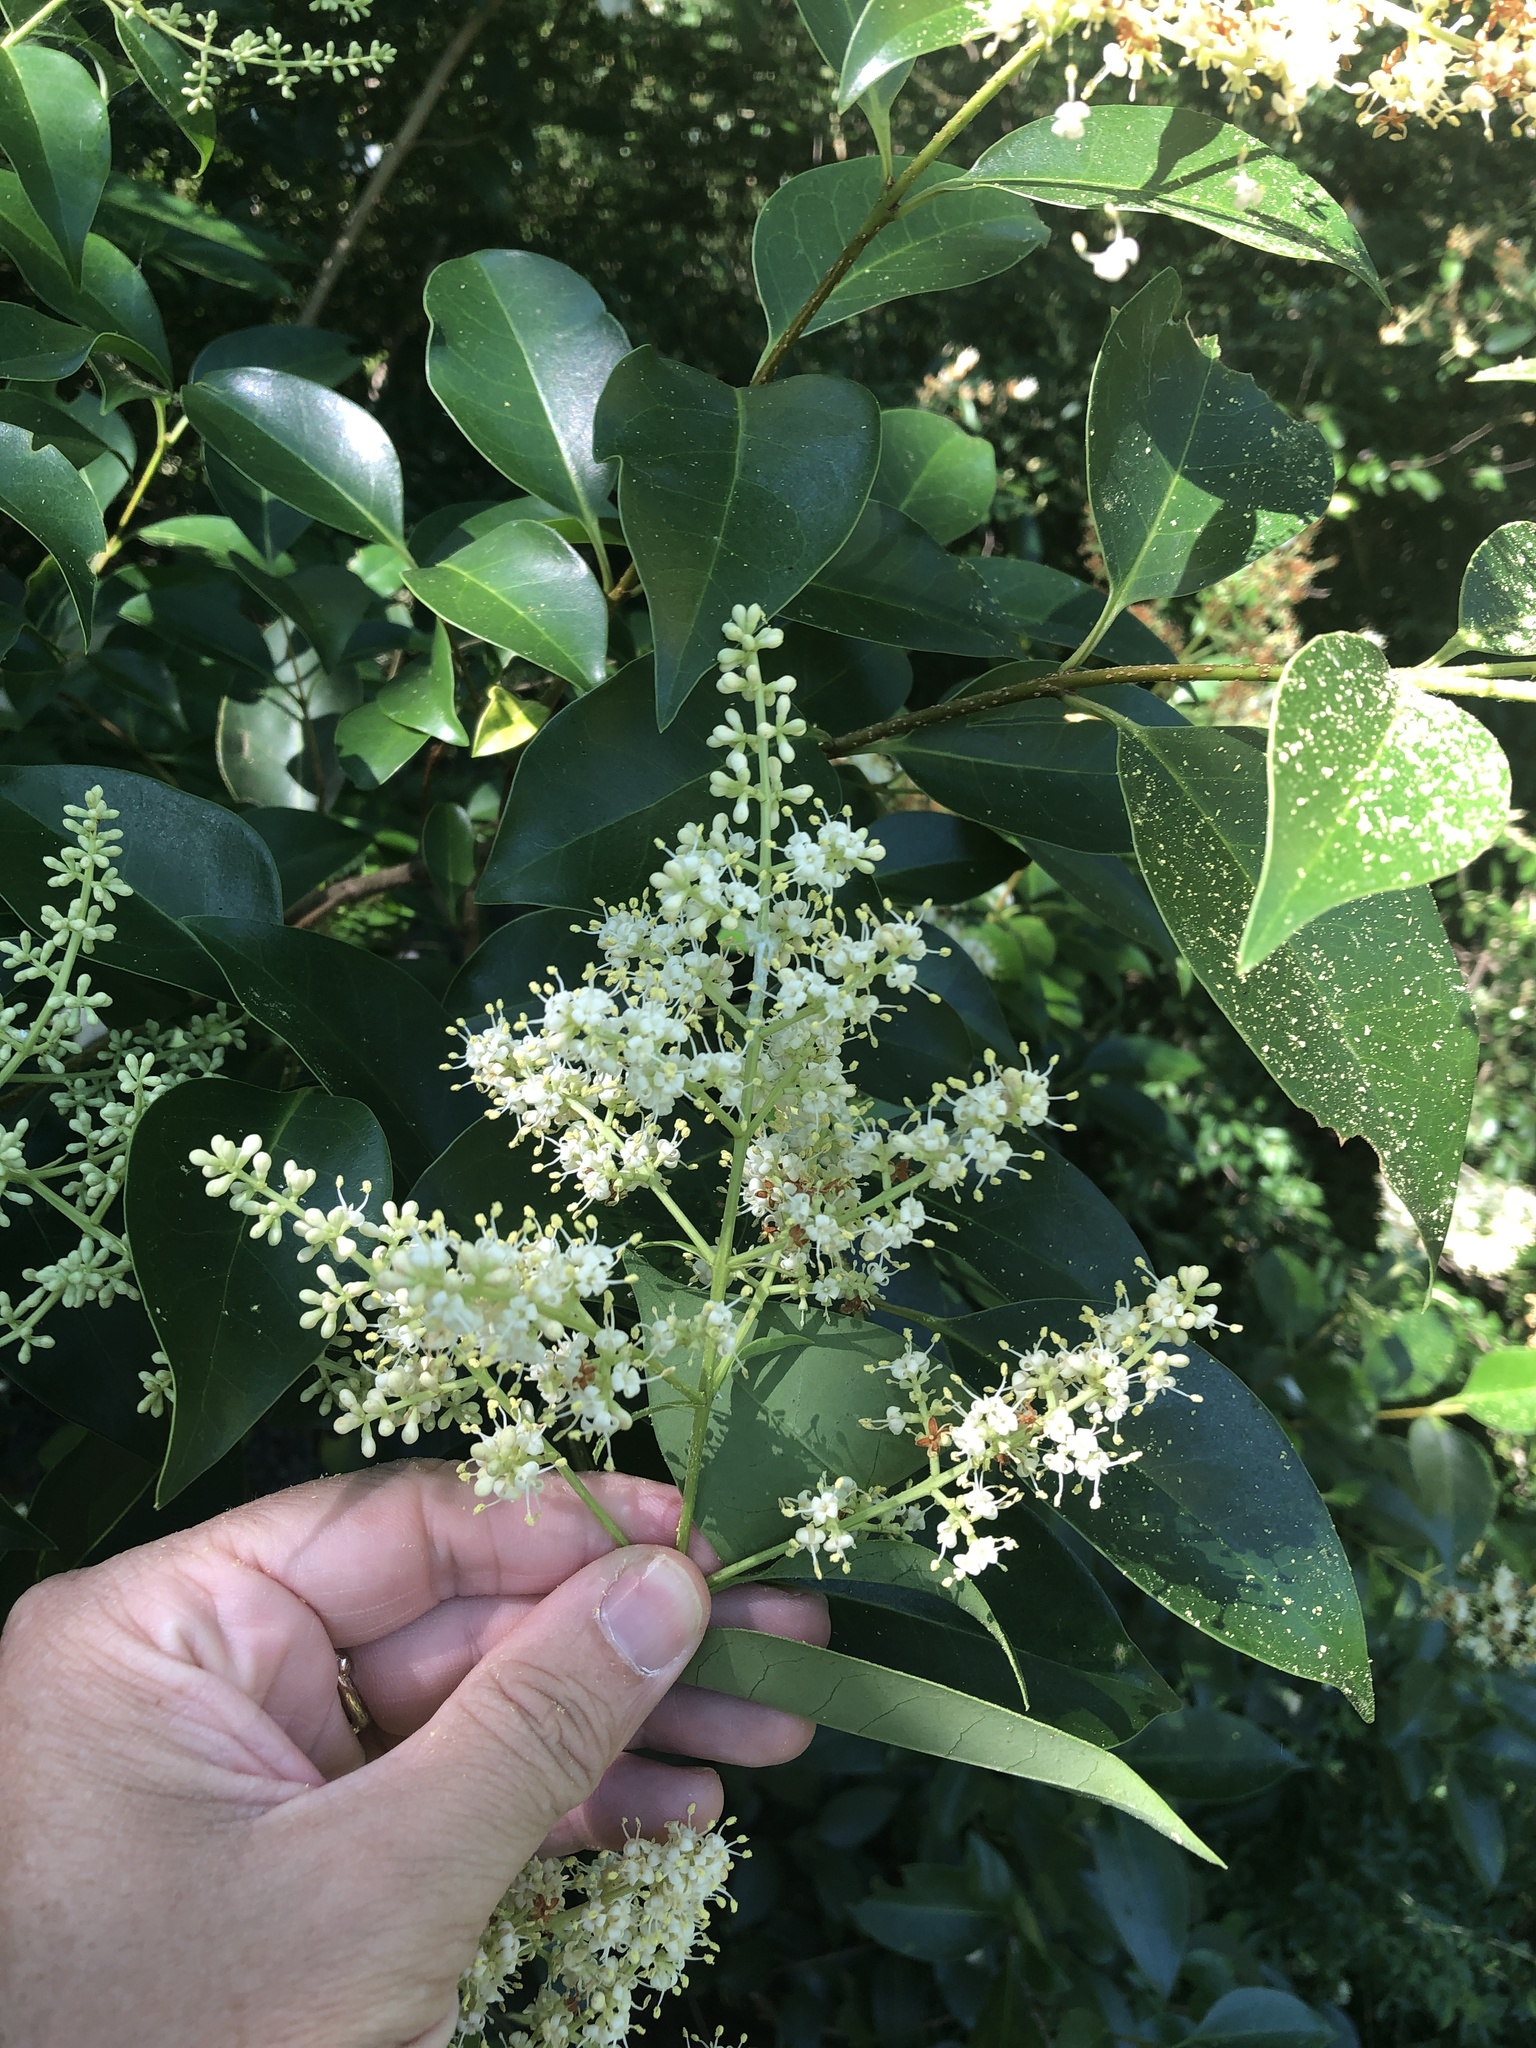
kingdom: Plantae
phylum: Tracheophyta
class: Magnoliopsida
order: Lamiales
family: Oleaceae
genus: Ligustrum
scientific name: Ligustrum lucidum
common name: Glossy privet
